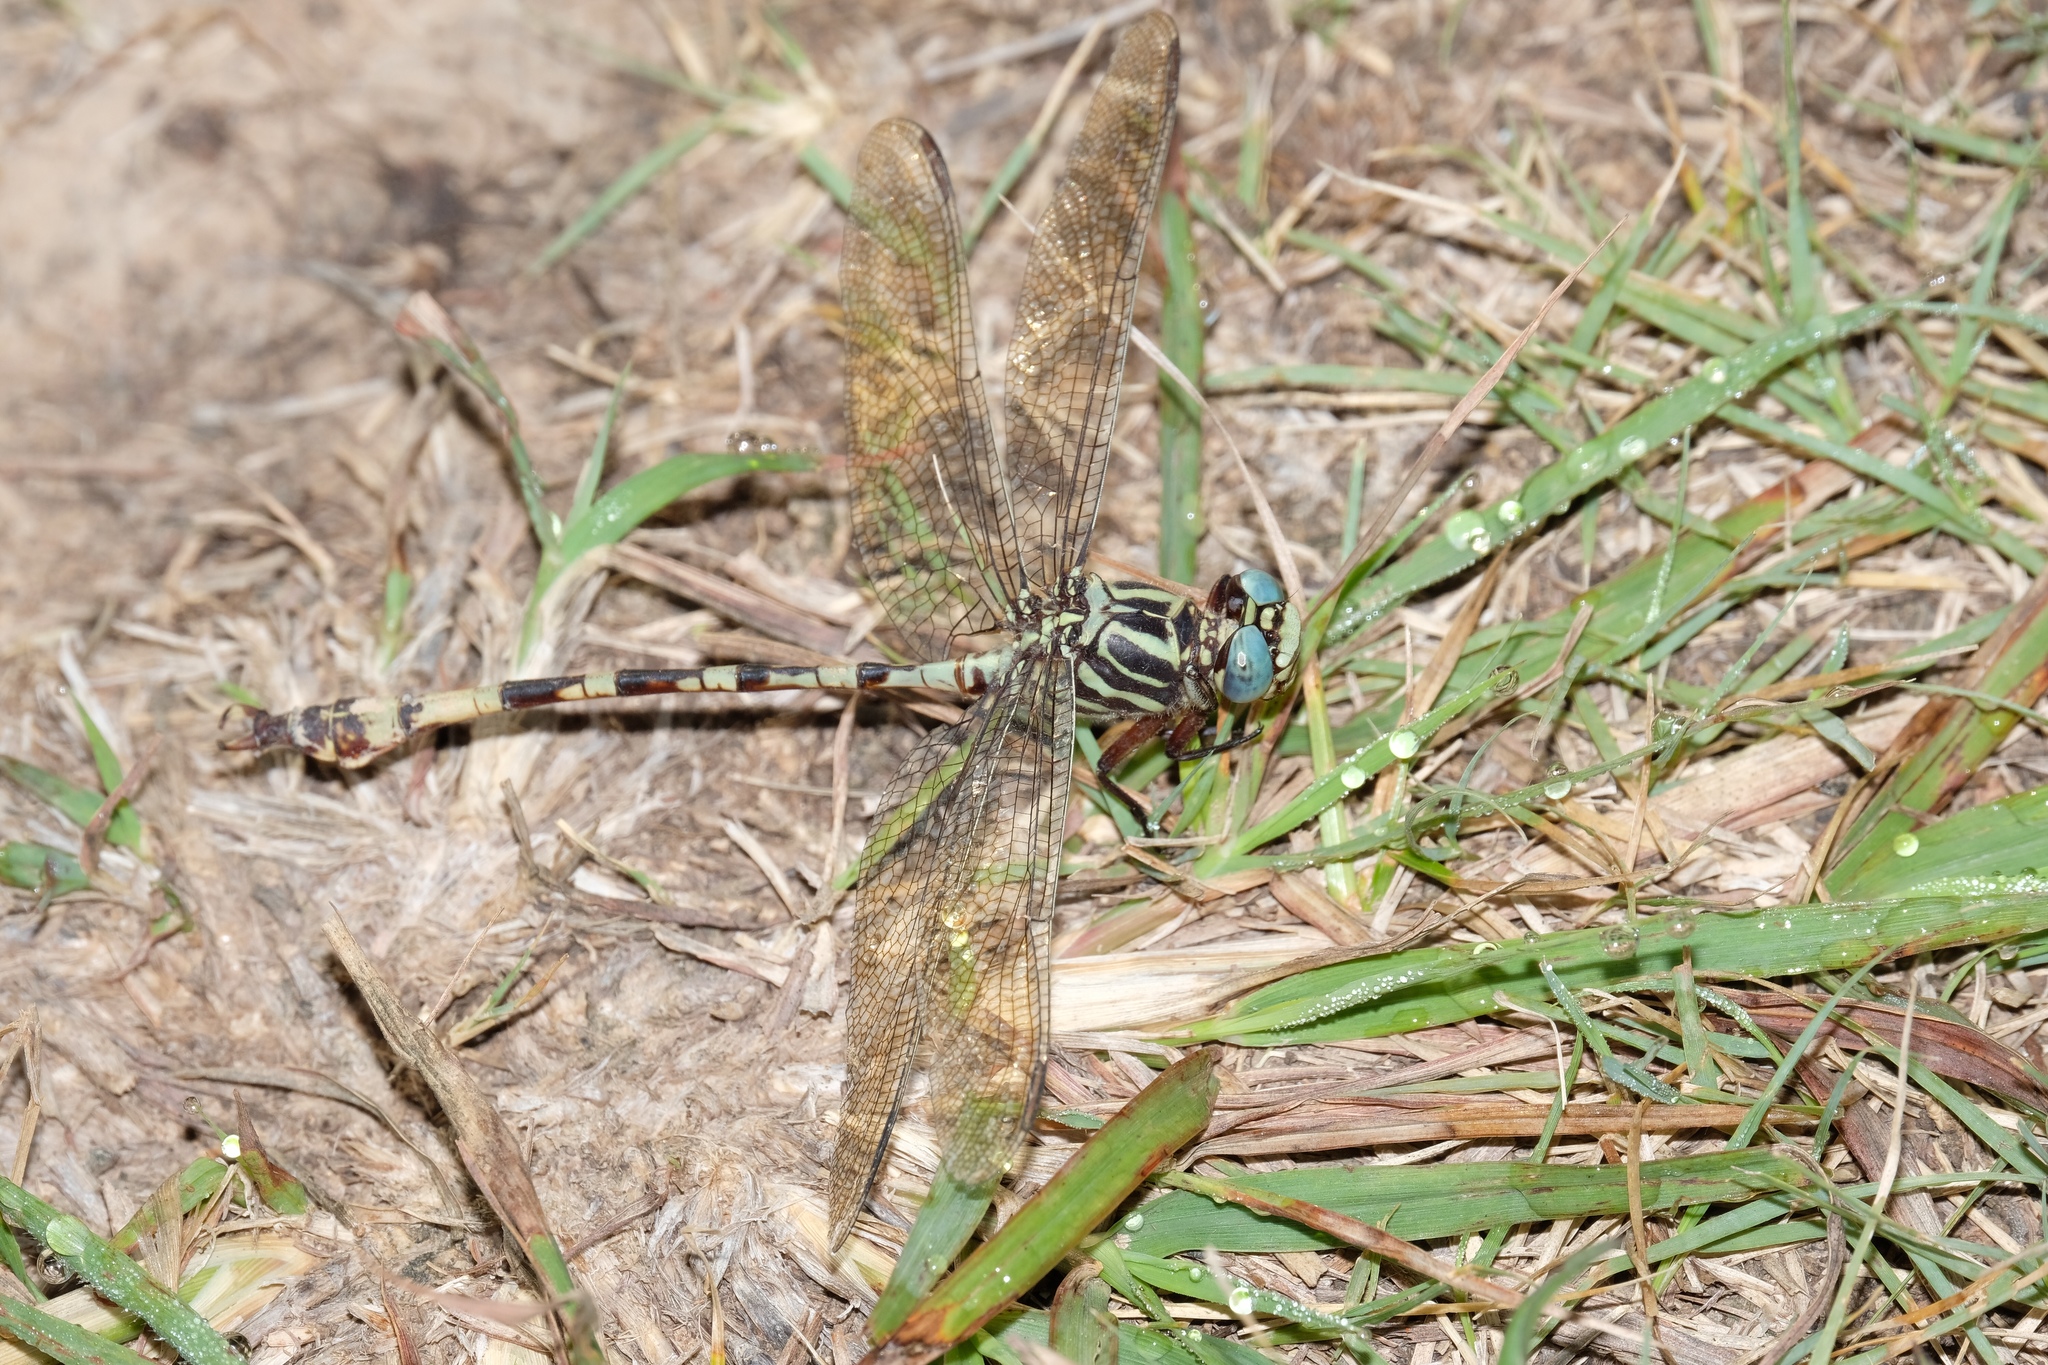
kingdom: Animalia
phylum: Arthropoda
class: Insecta
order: Odonata
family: Gomphidae
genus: Aphylla
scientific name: Aphylla angustifolia
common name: Broad-striped forceptail
